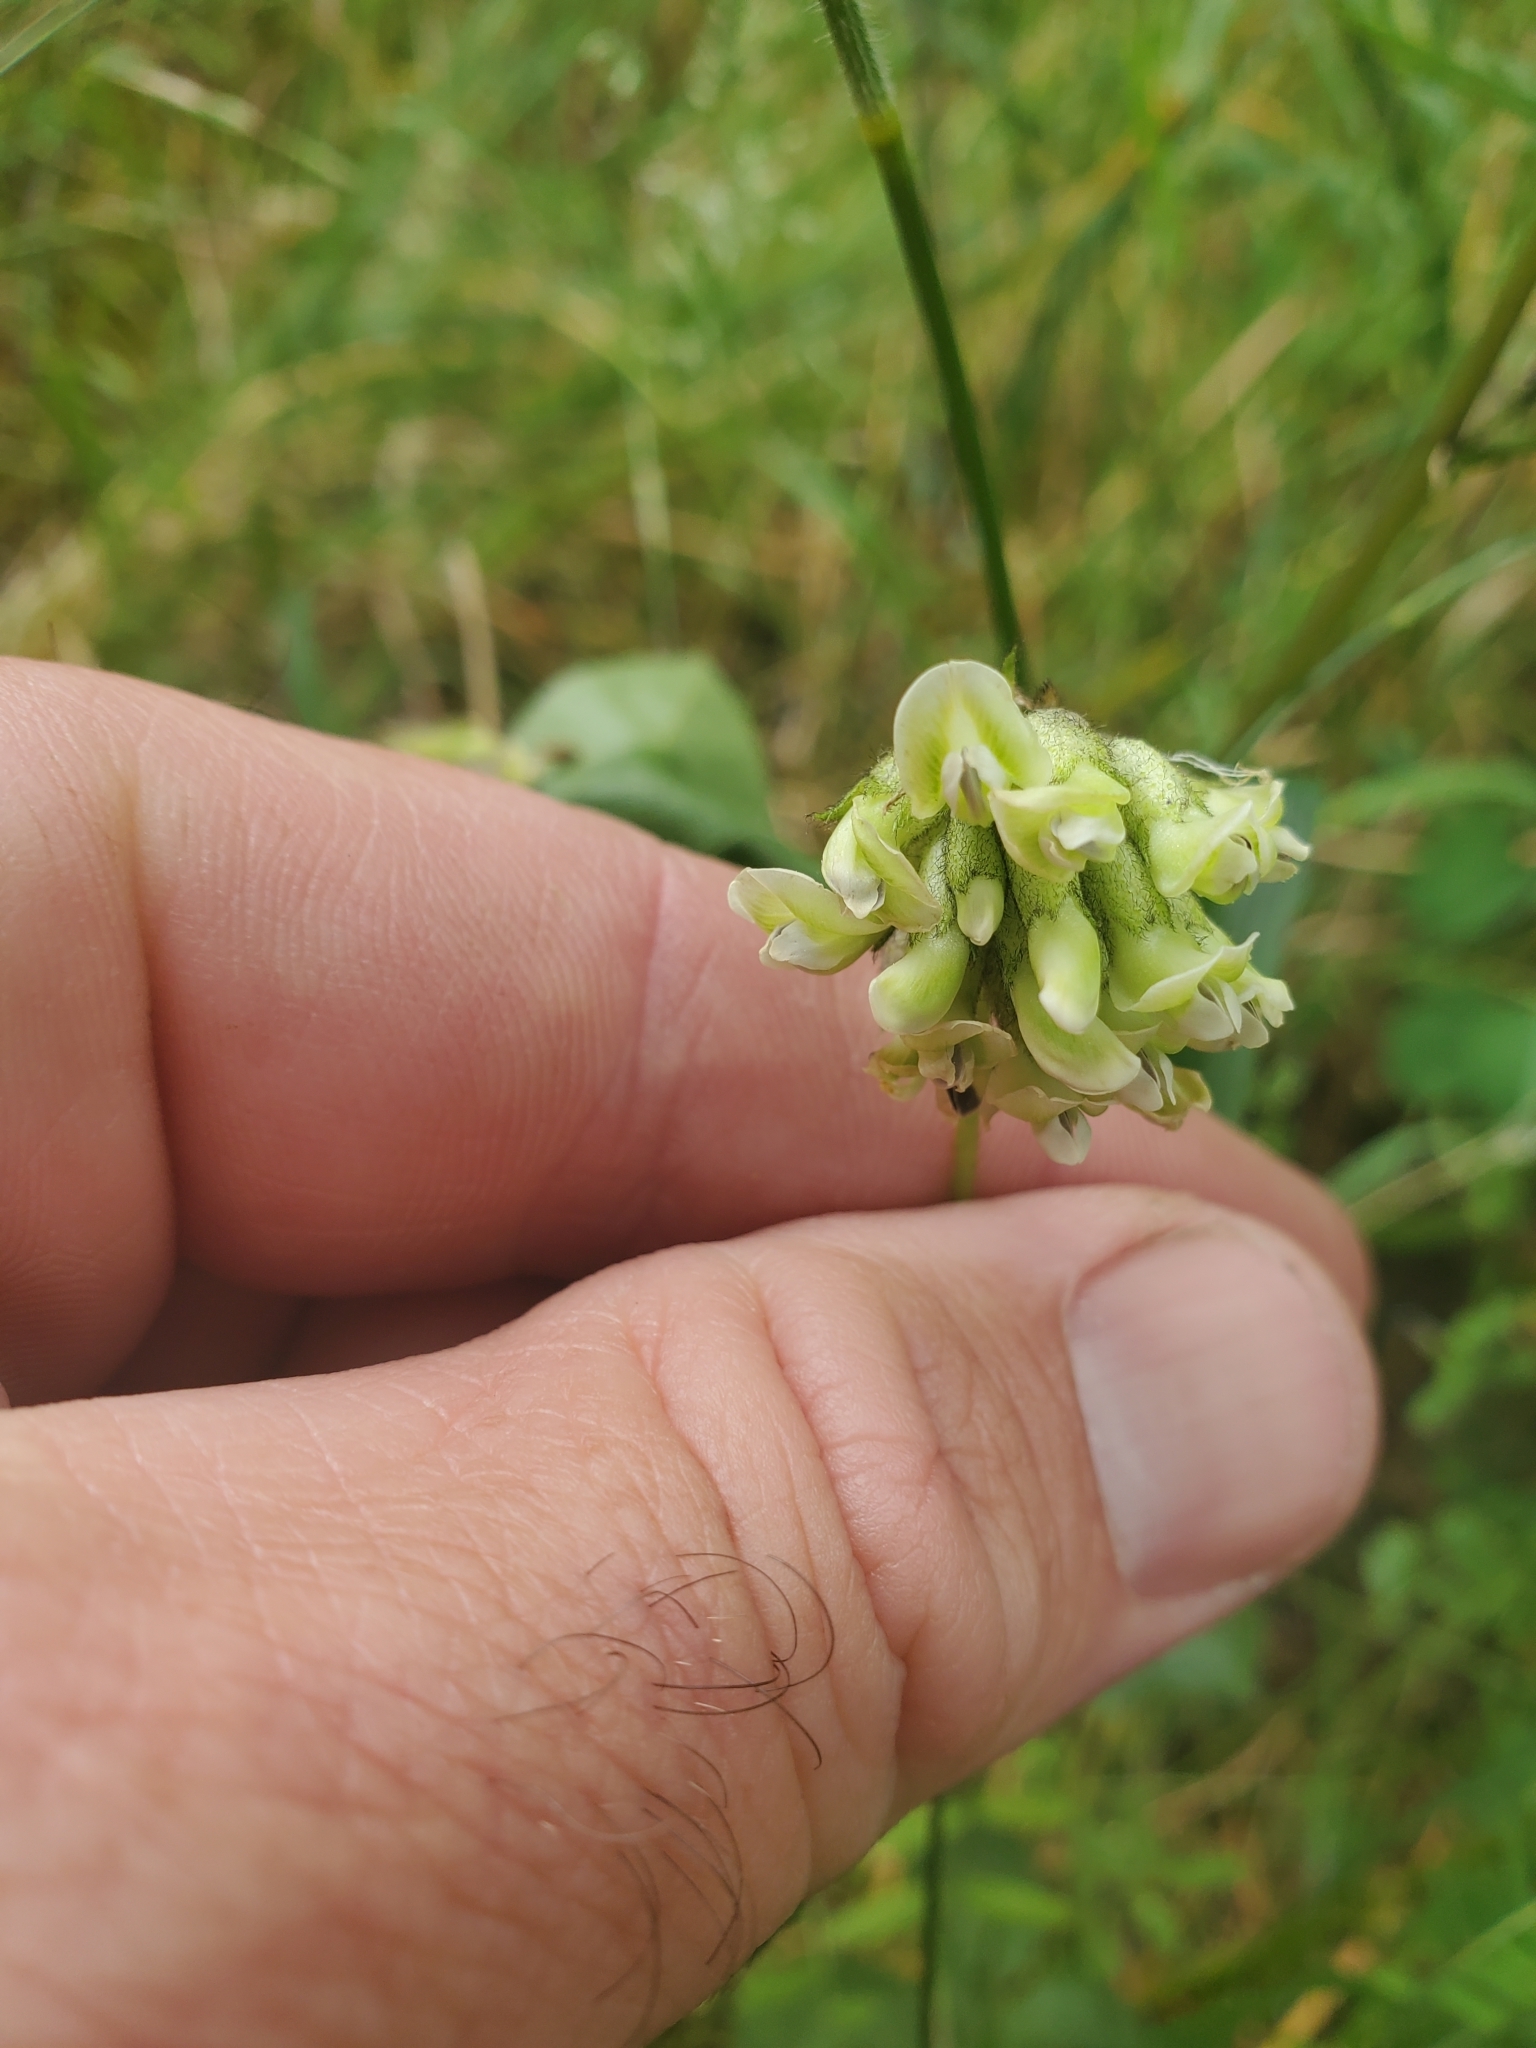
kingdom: Plantae
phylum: Tracheophyta
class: Magnoliopsida
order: Fabales
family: Fabaceae
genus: Rupertia
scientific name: Rupertia physodes
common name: California-tea
